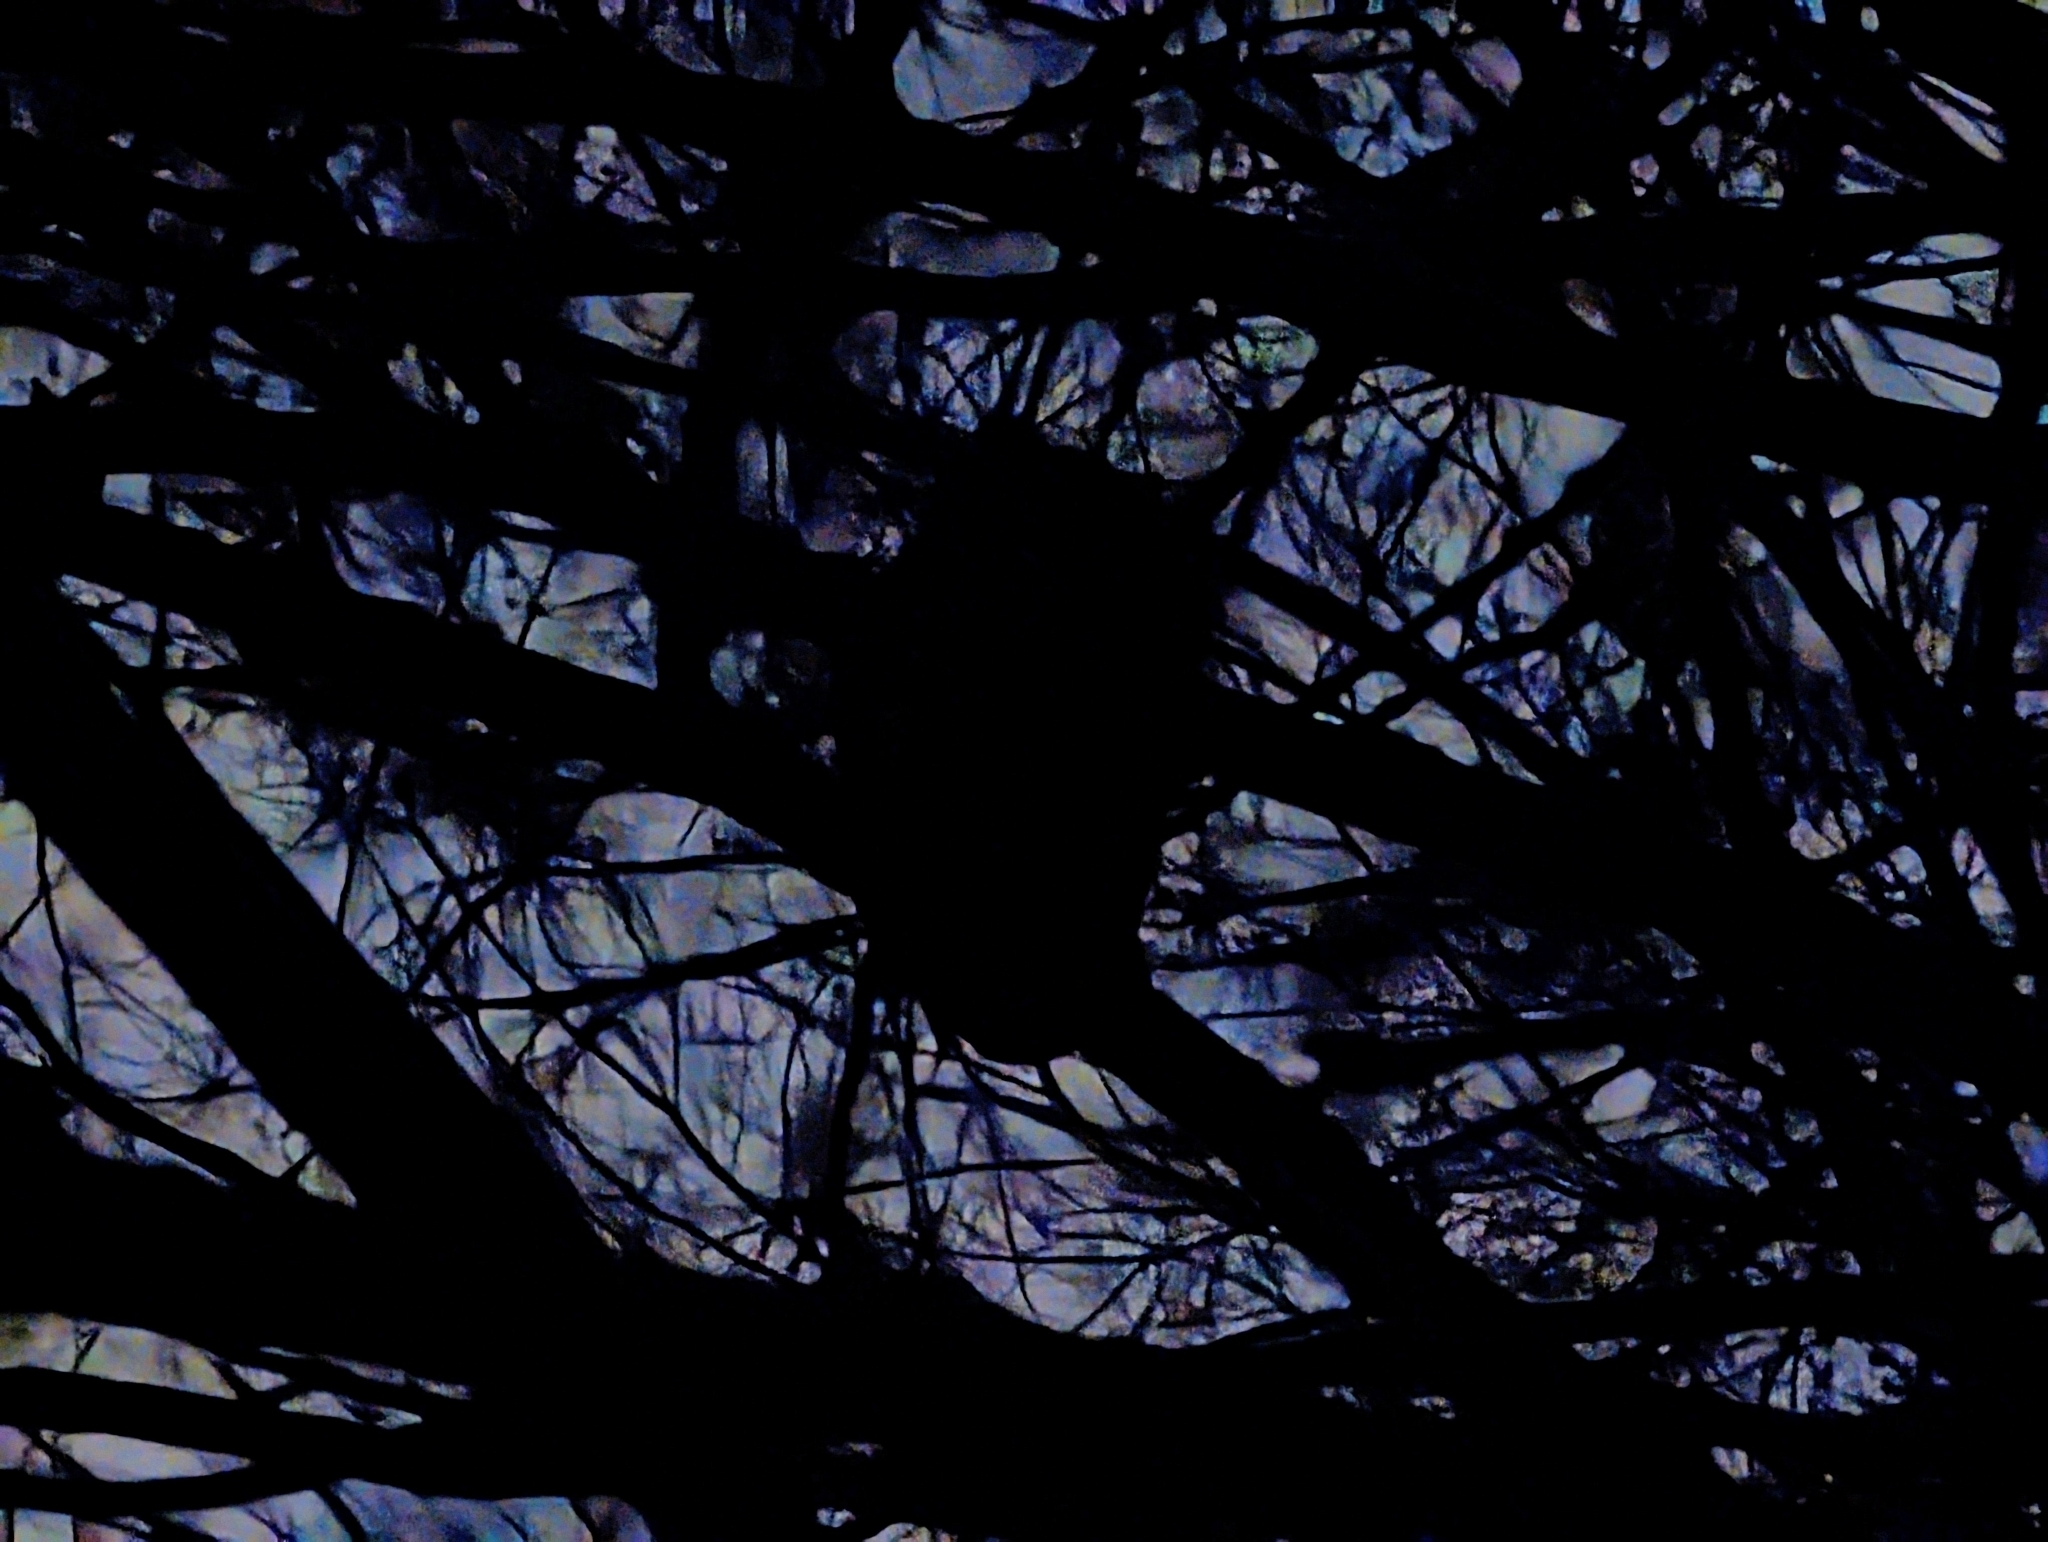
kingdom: Animalia
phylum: Chordata
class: Aves
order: Strigiformes
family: Strigidae
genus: Bubo
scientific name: Bubo virginianus
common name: Great horned owl
